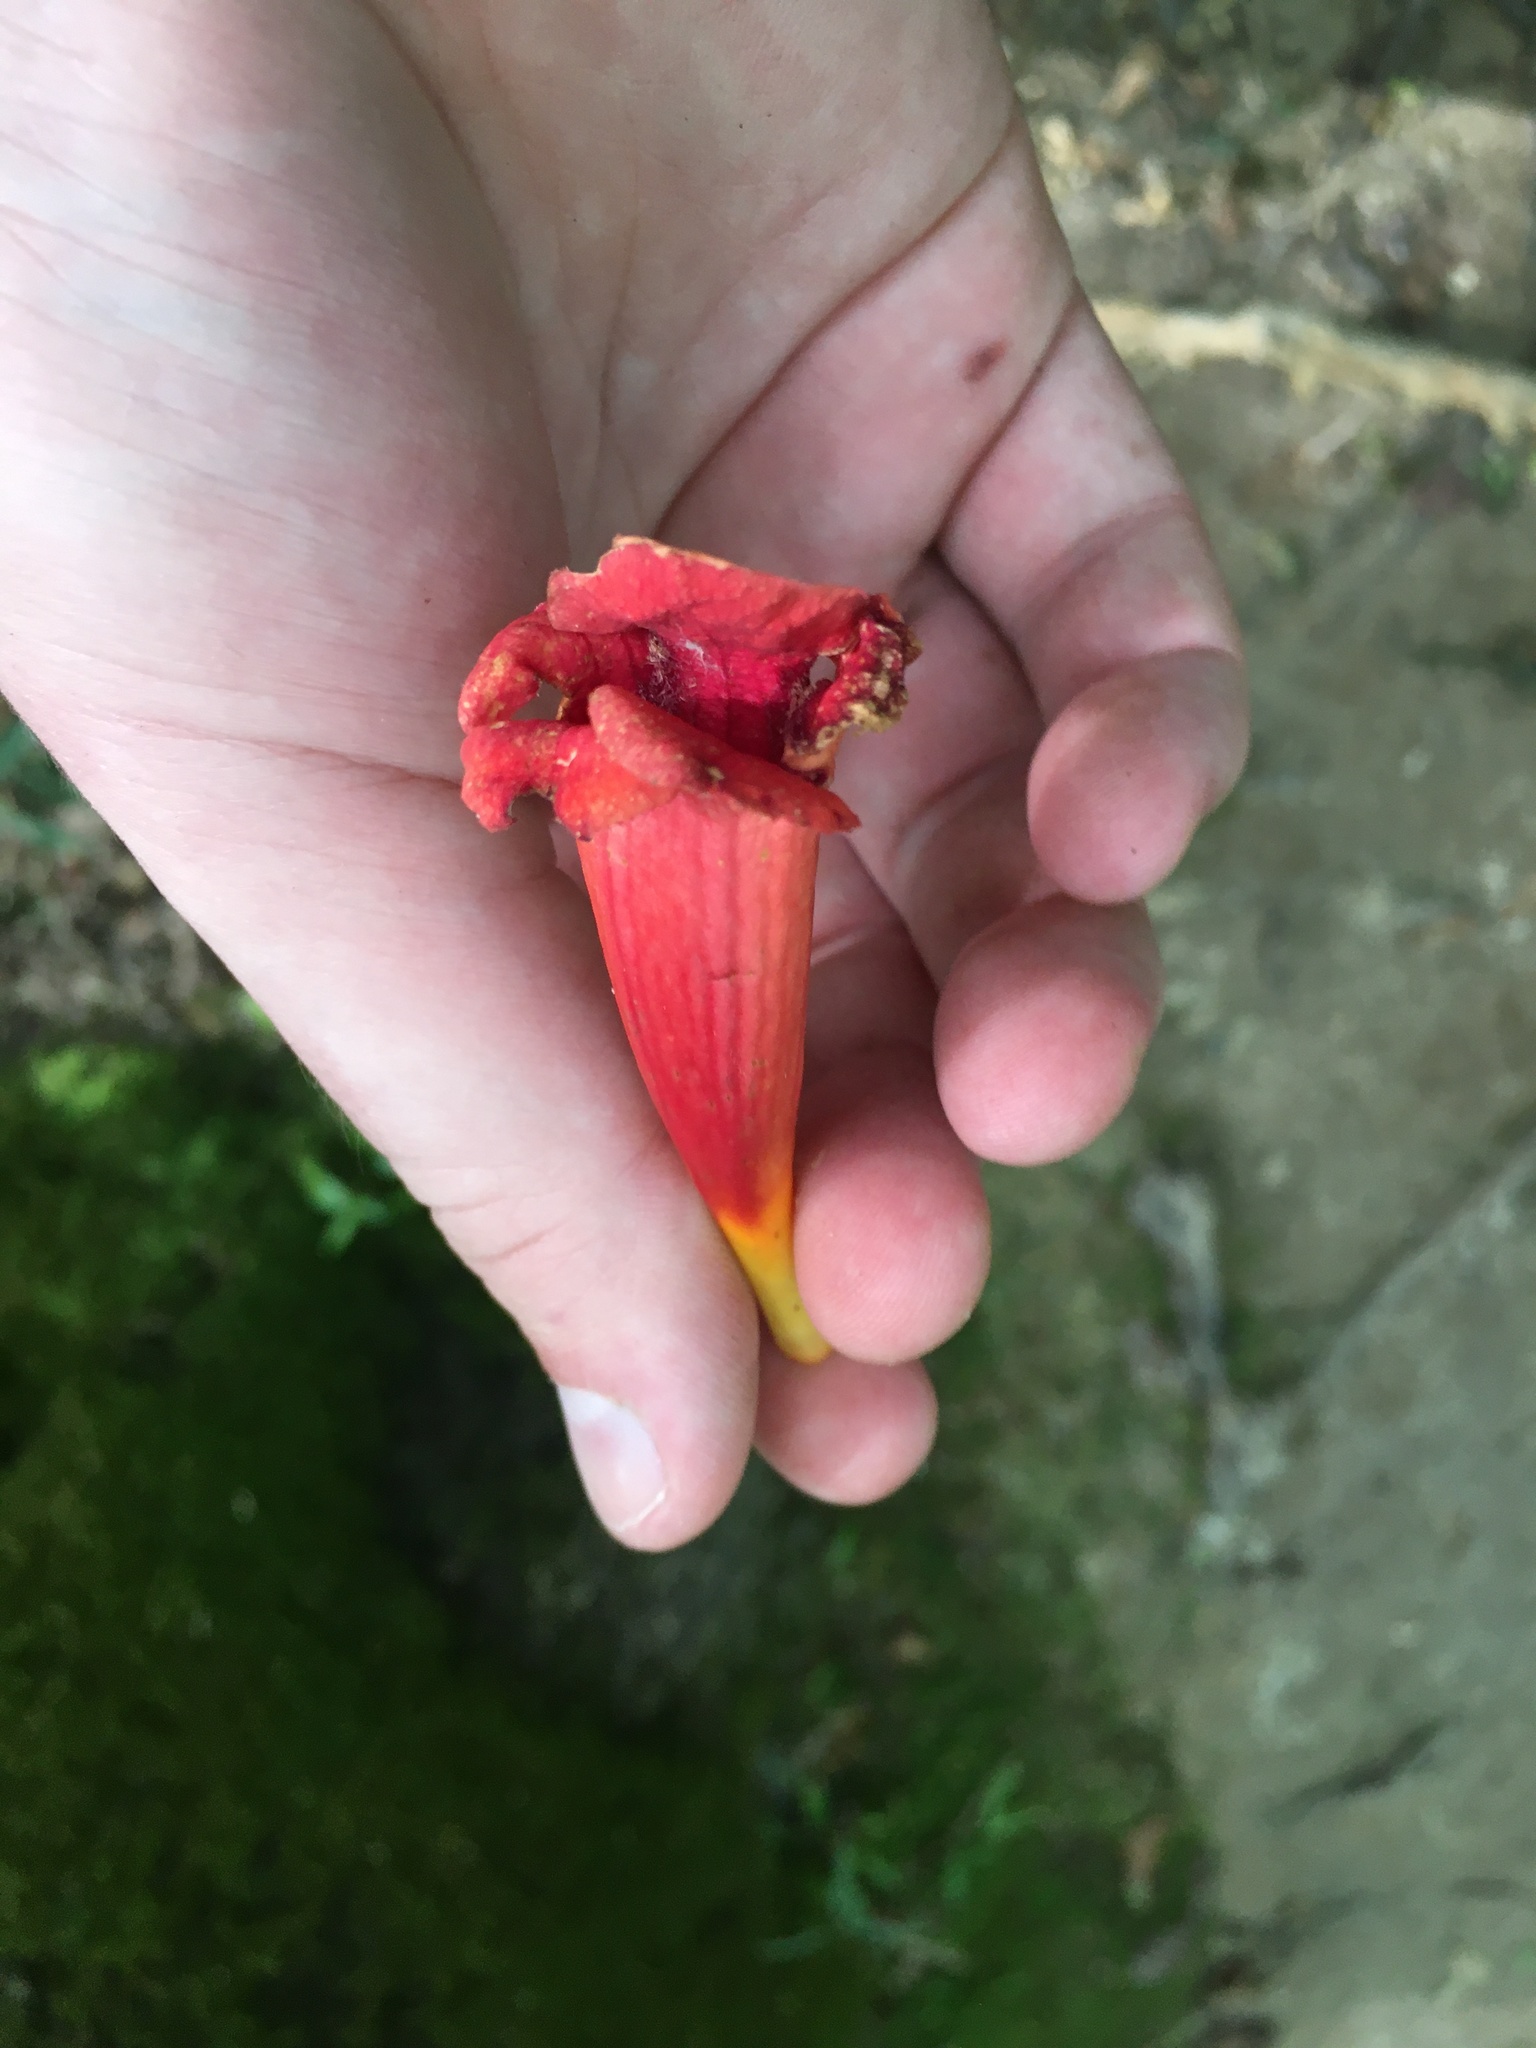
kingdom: Plantae
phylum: Tracheophyta
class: Magnoliopsida
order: Lamiales
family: Bignoniaceae
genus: Campsis
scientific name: Campsis radicans
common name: Trumpet-creeper
